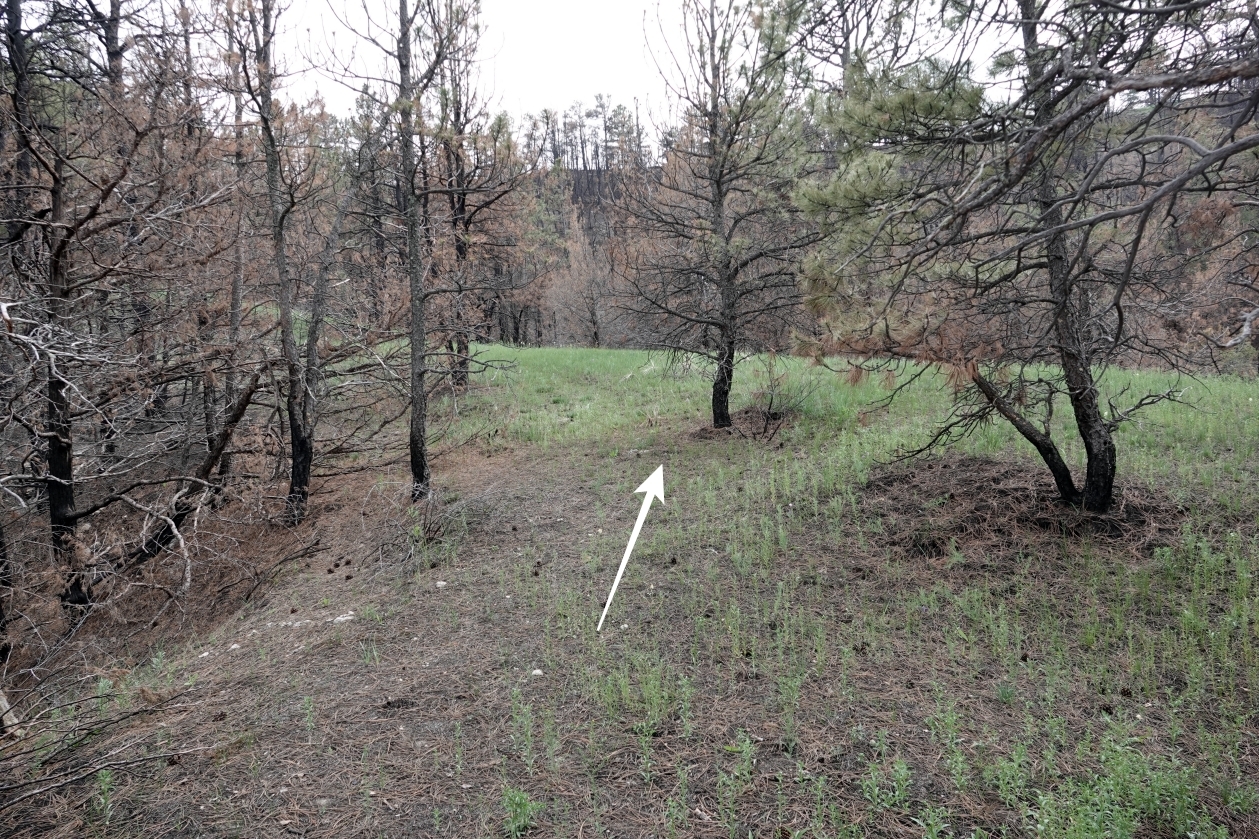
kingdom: Animalia
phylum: Chordata
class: Mammalia
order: Carnivora
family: Felidae
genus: Puma
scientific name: Puma concolor
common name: Puma
